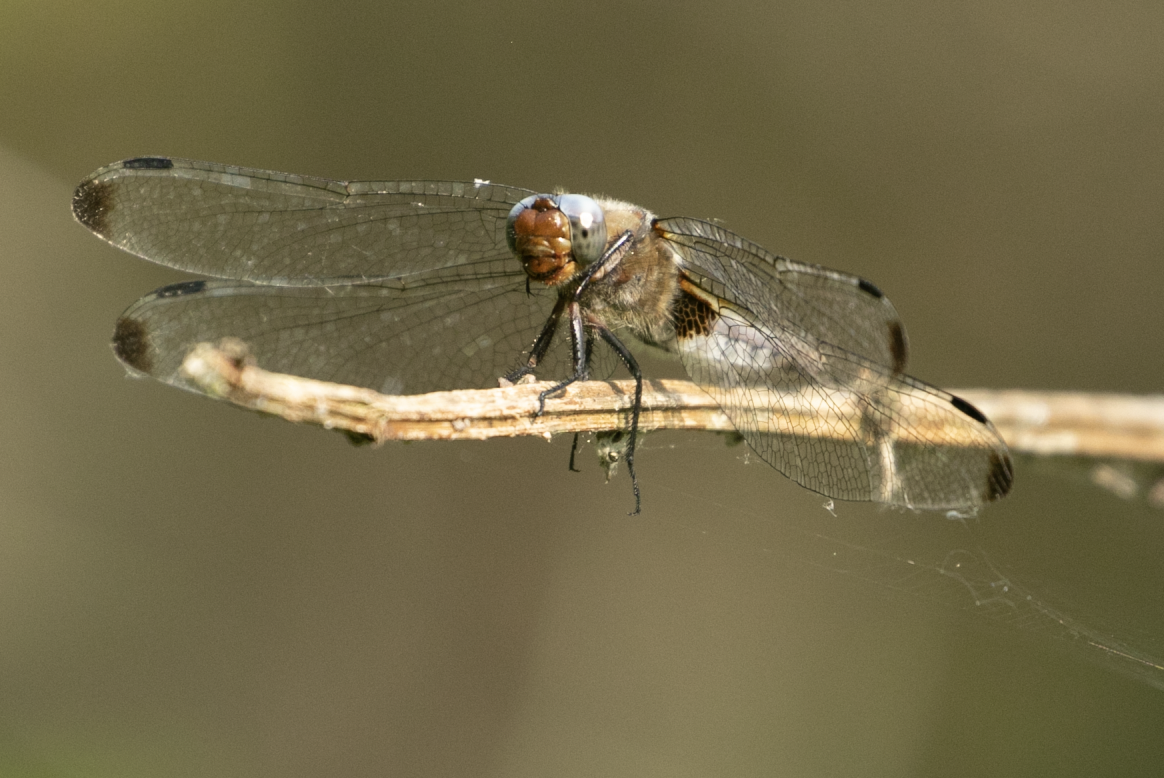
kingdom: Animalia
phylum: Arthropoda
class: Insecta
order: Odonata
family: Libellulidae
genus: Libellula
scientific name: Libellula fulva
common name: Blue chaser
